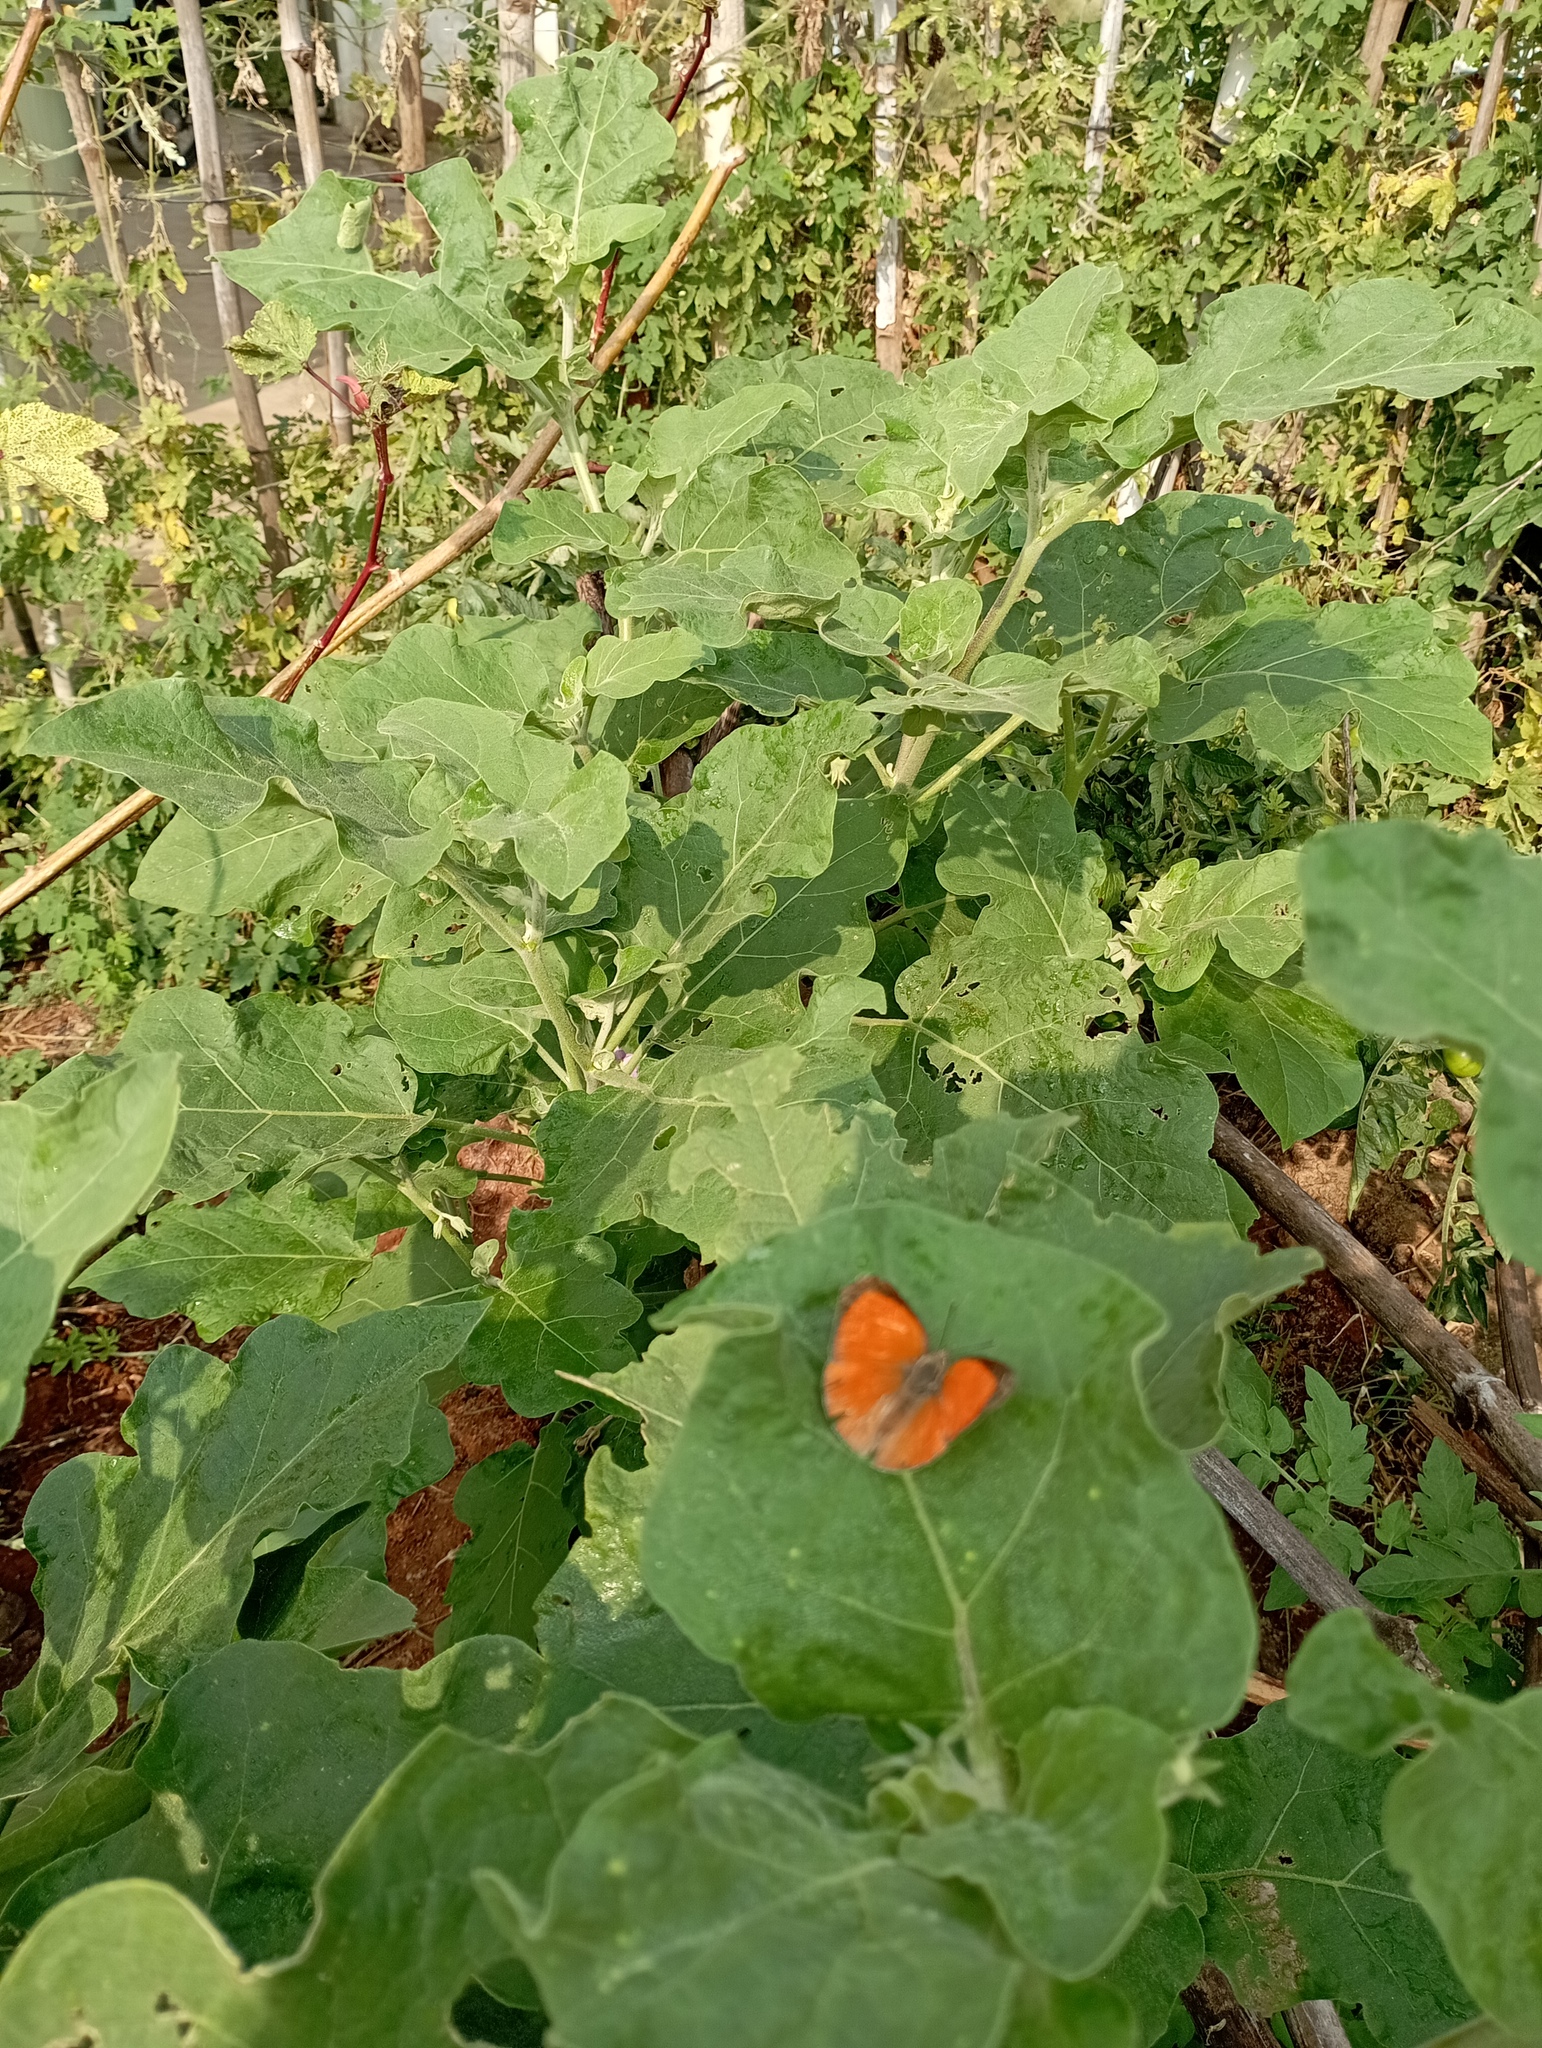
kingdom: Animalia
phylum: Arthropoda
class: Insecta
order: Lepidoptera
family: Lycaenidae
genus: Curetis
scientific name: Curetis thetis
